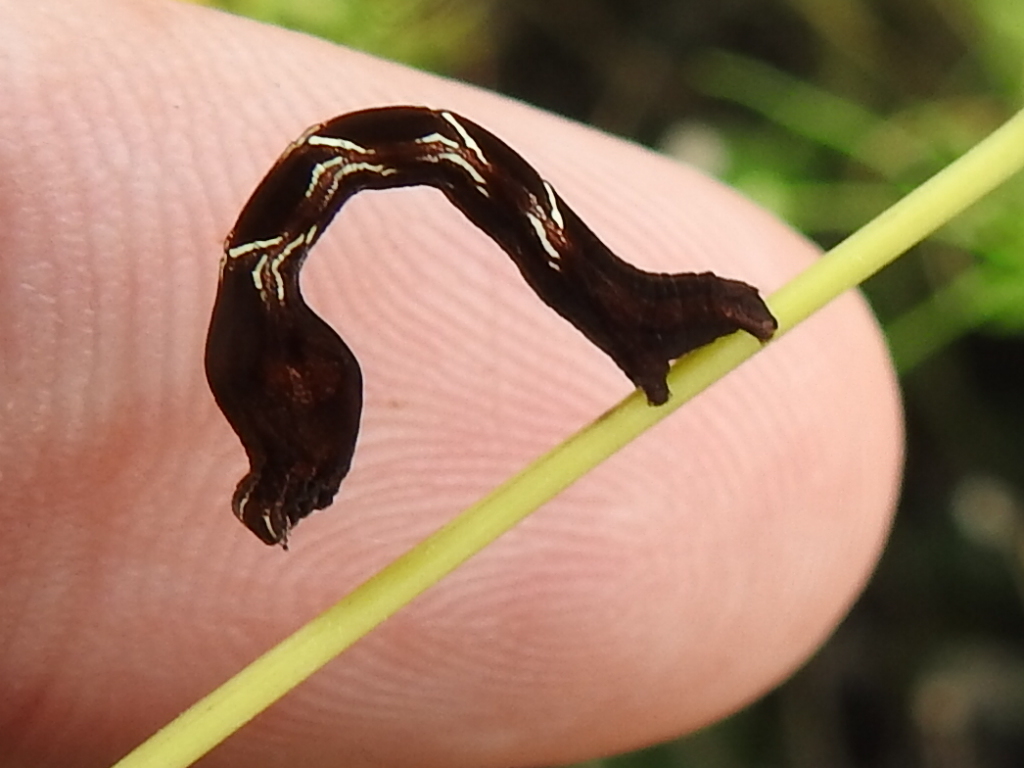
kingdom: Animalia
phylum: Arthropoda
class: Insecta
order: Lepidoptera
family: Geometridae
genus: Timandra
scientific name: Timandra amaturaria
